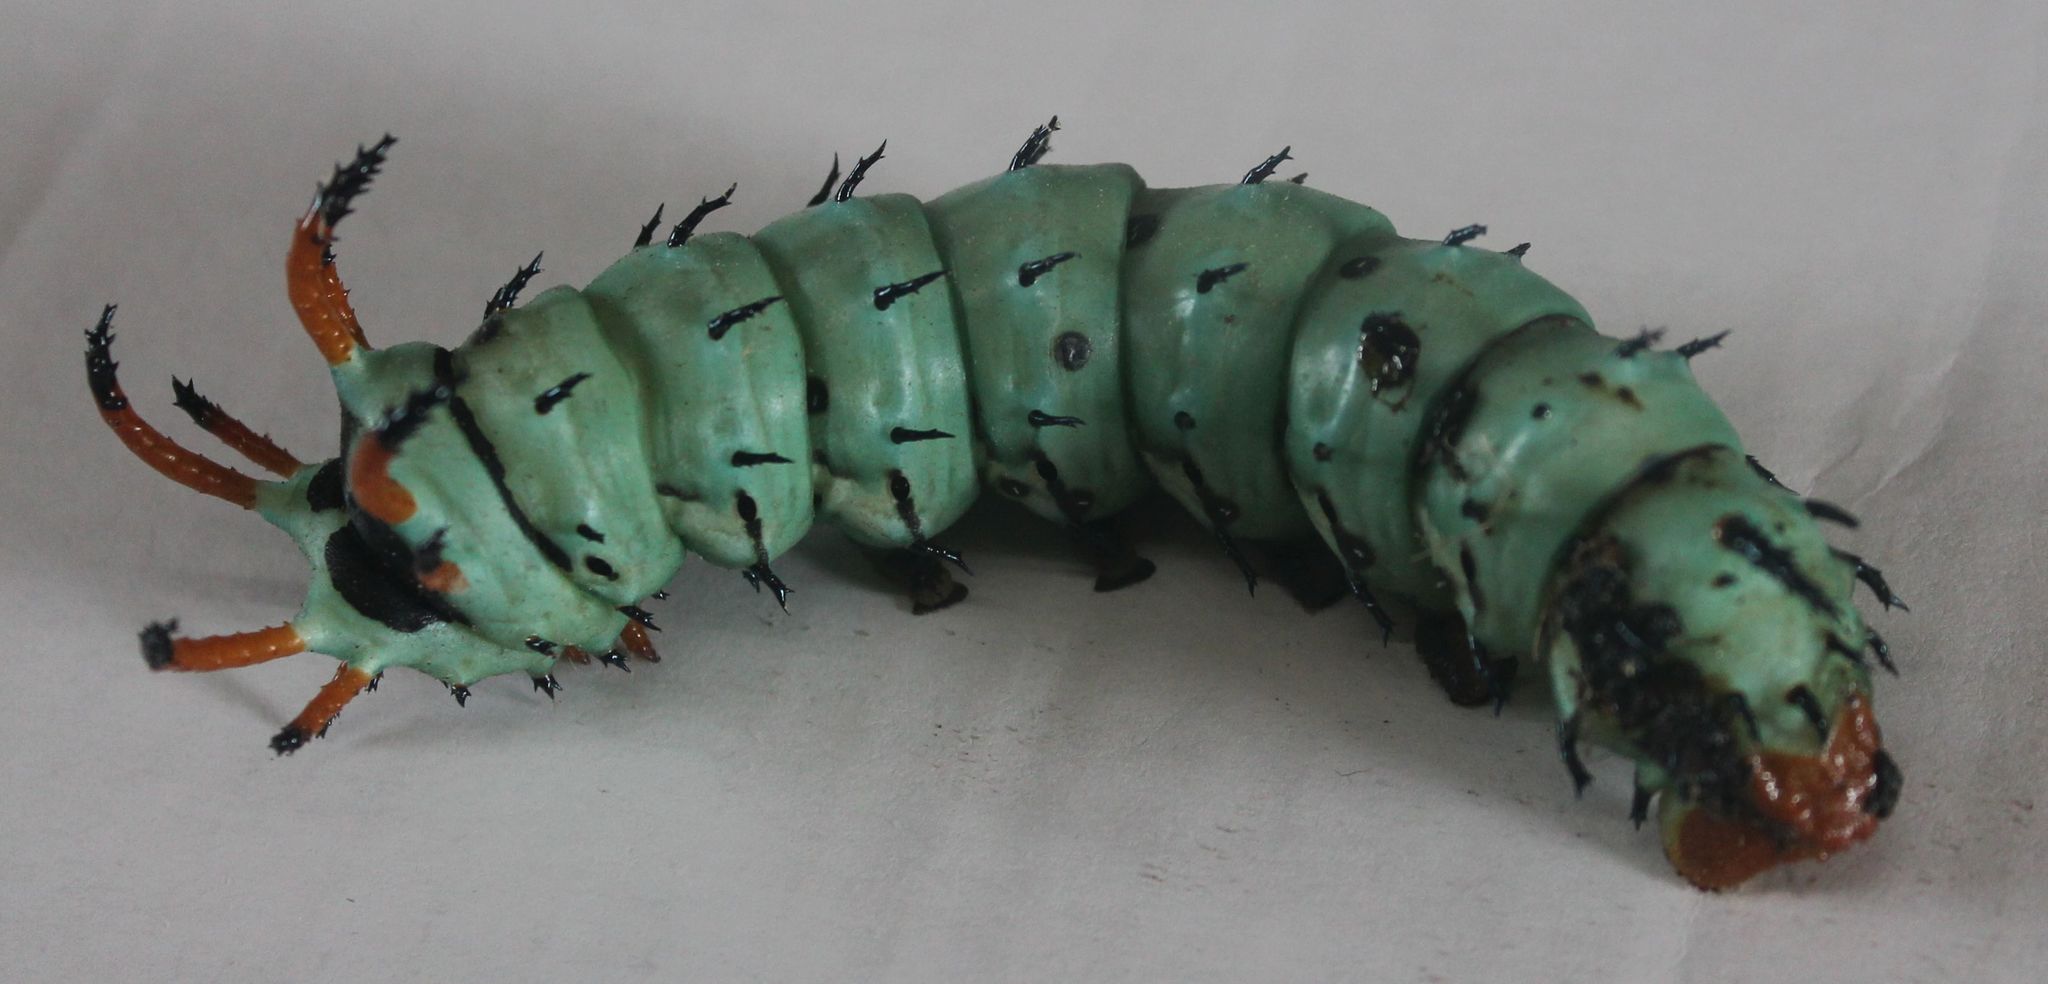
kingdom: Animalia
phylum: Arthropoda
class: Insecta
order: Lepidoptera
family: Saturniidae
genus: Citheronia
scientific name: Citheronia regalis
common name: Hickory horned devil
